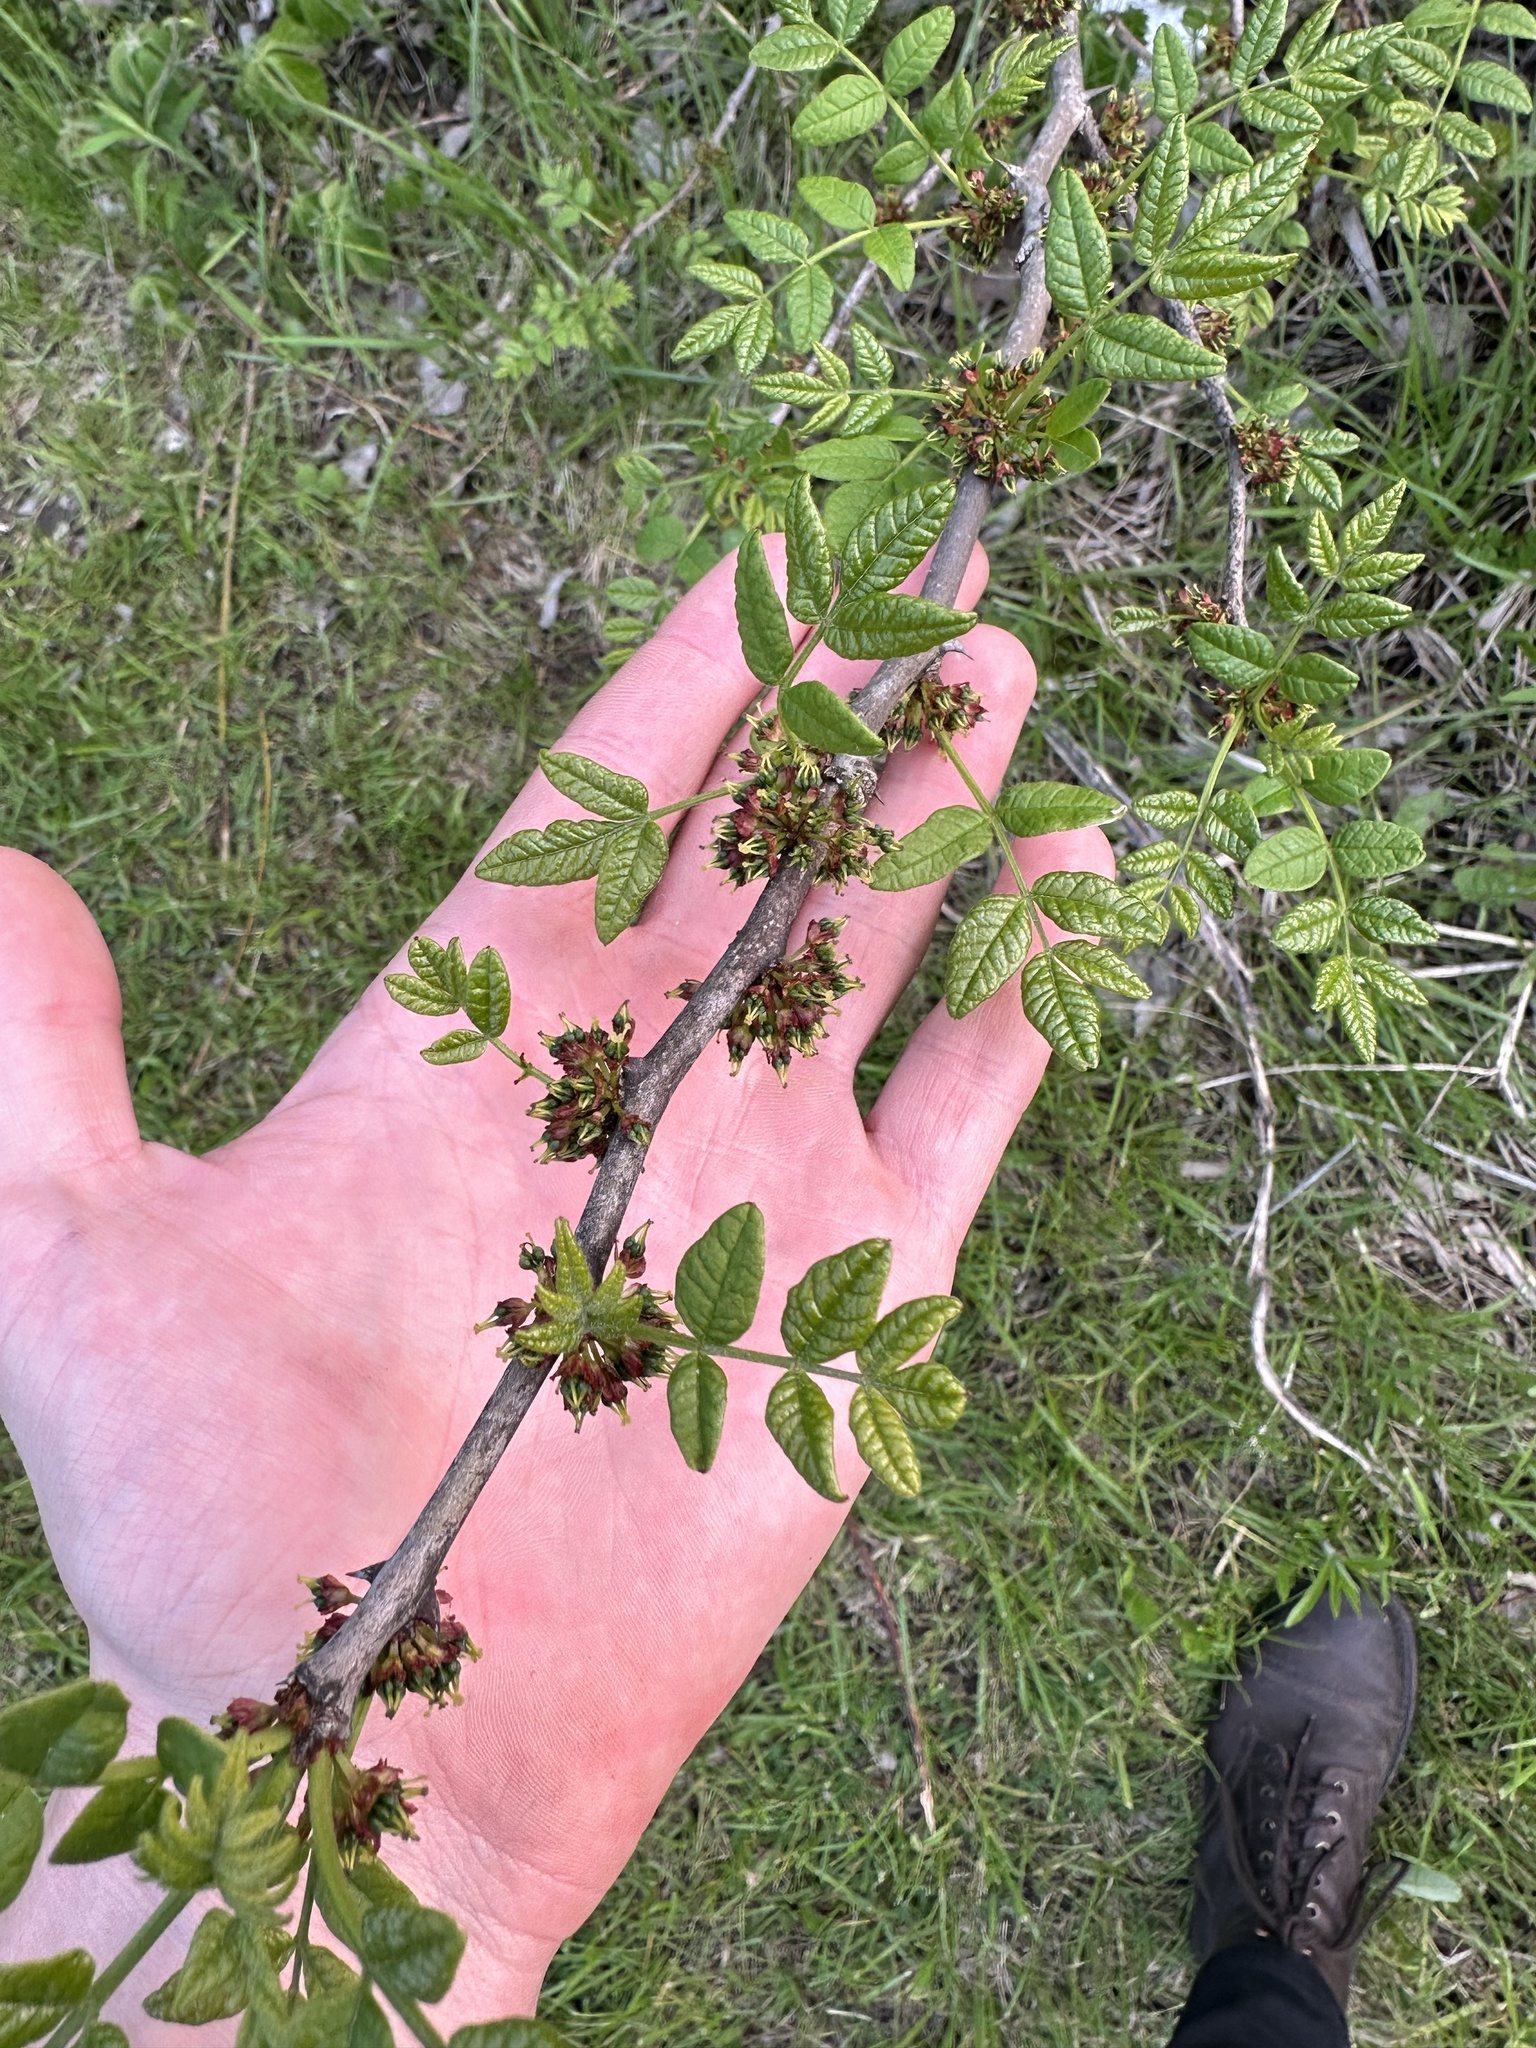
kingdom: Plantae
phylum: Tracheophyta
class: Magnoliopsida
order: Sapindales
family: Rutaceae
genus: Zanthoxylum
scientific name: Zanthoxylum americanum
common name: Northern prickly-ash
